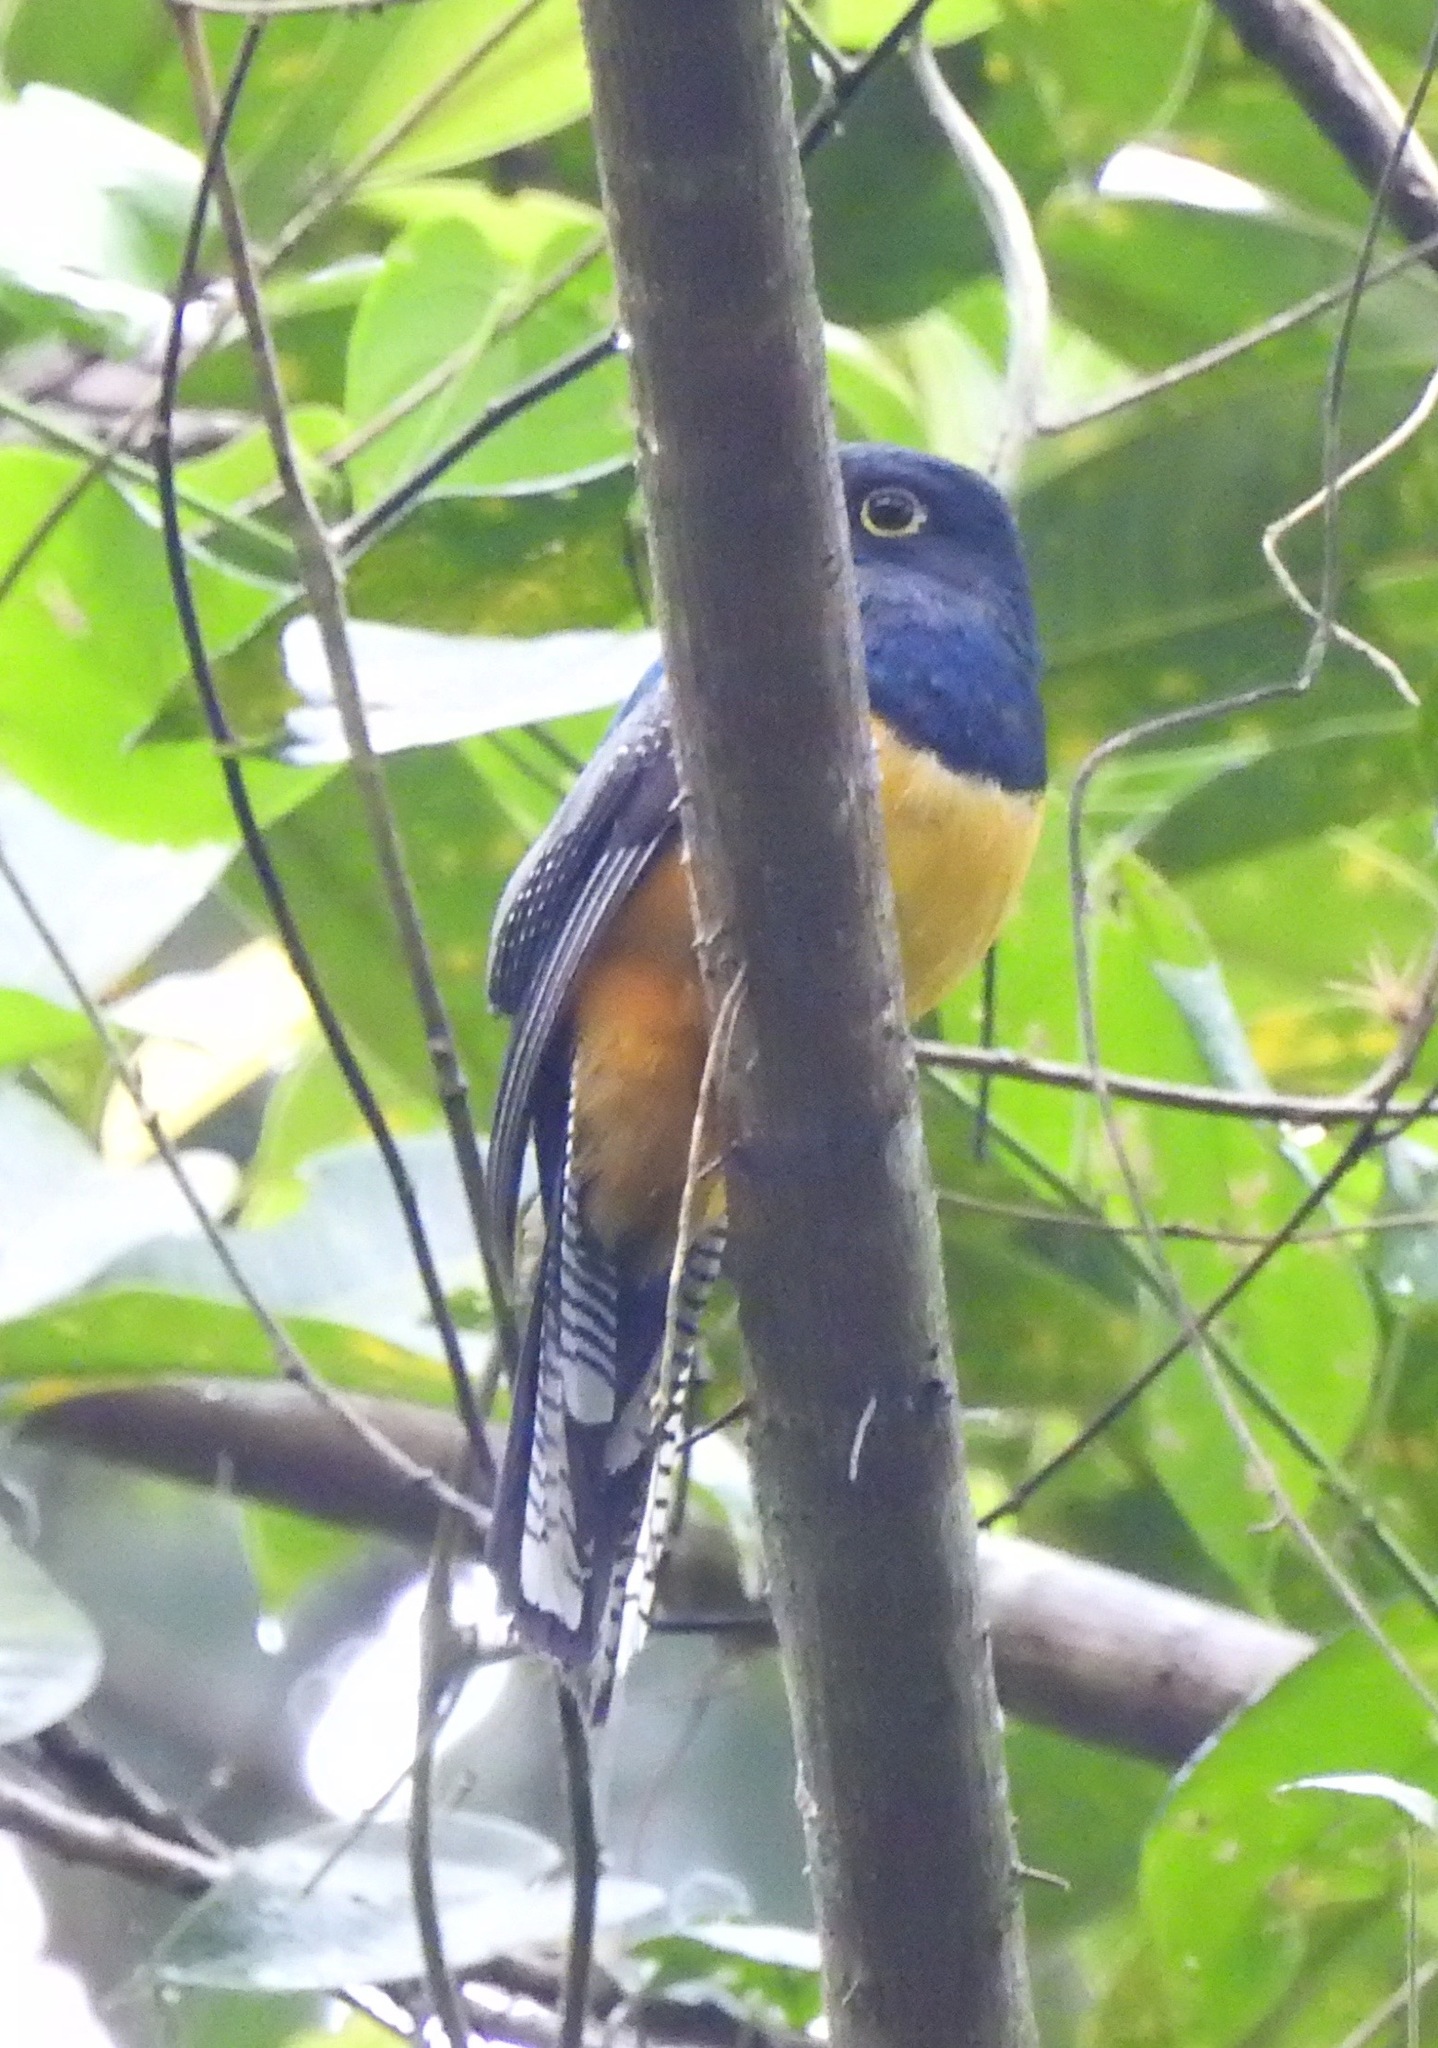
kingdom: Animalia
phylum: Chordata
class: Aves
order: Trogoniformes
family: Trogonidae
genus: Trogon
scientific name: Trogon caligatus
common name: Gartered trogon
